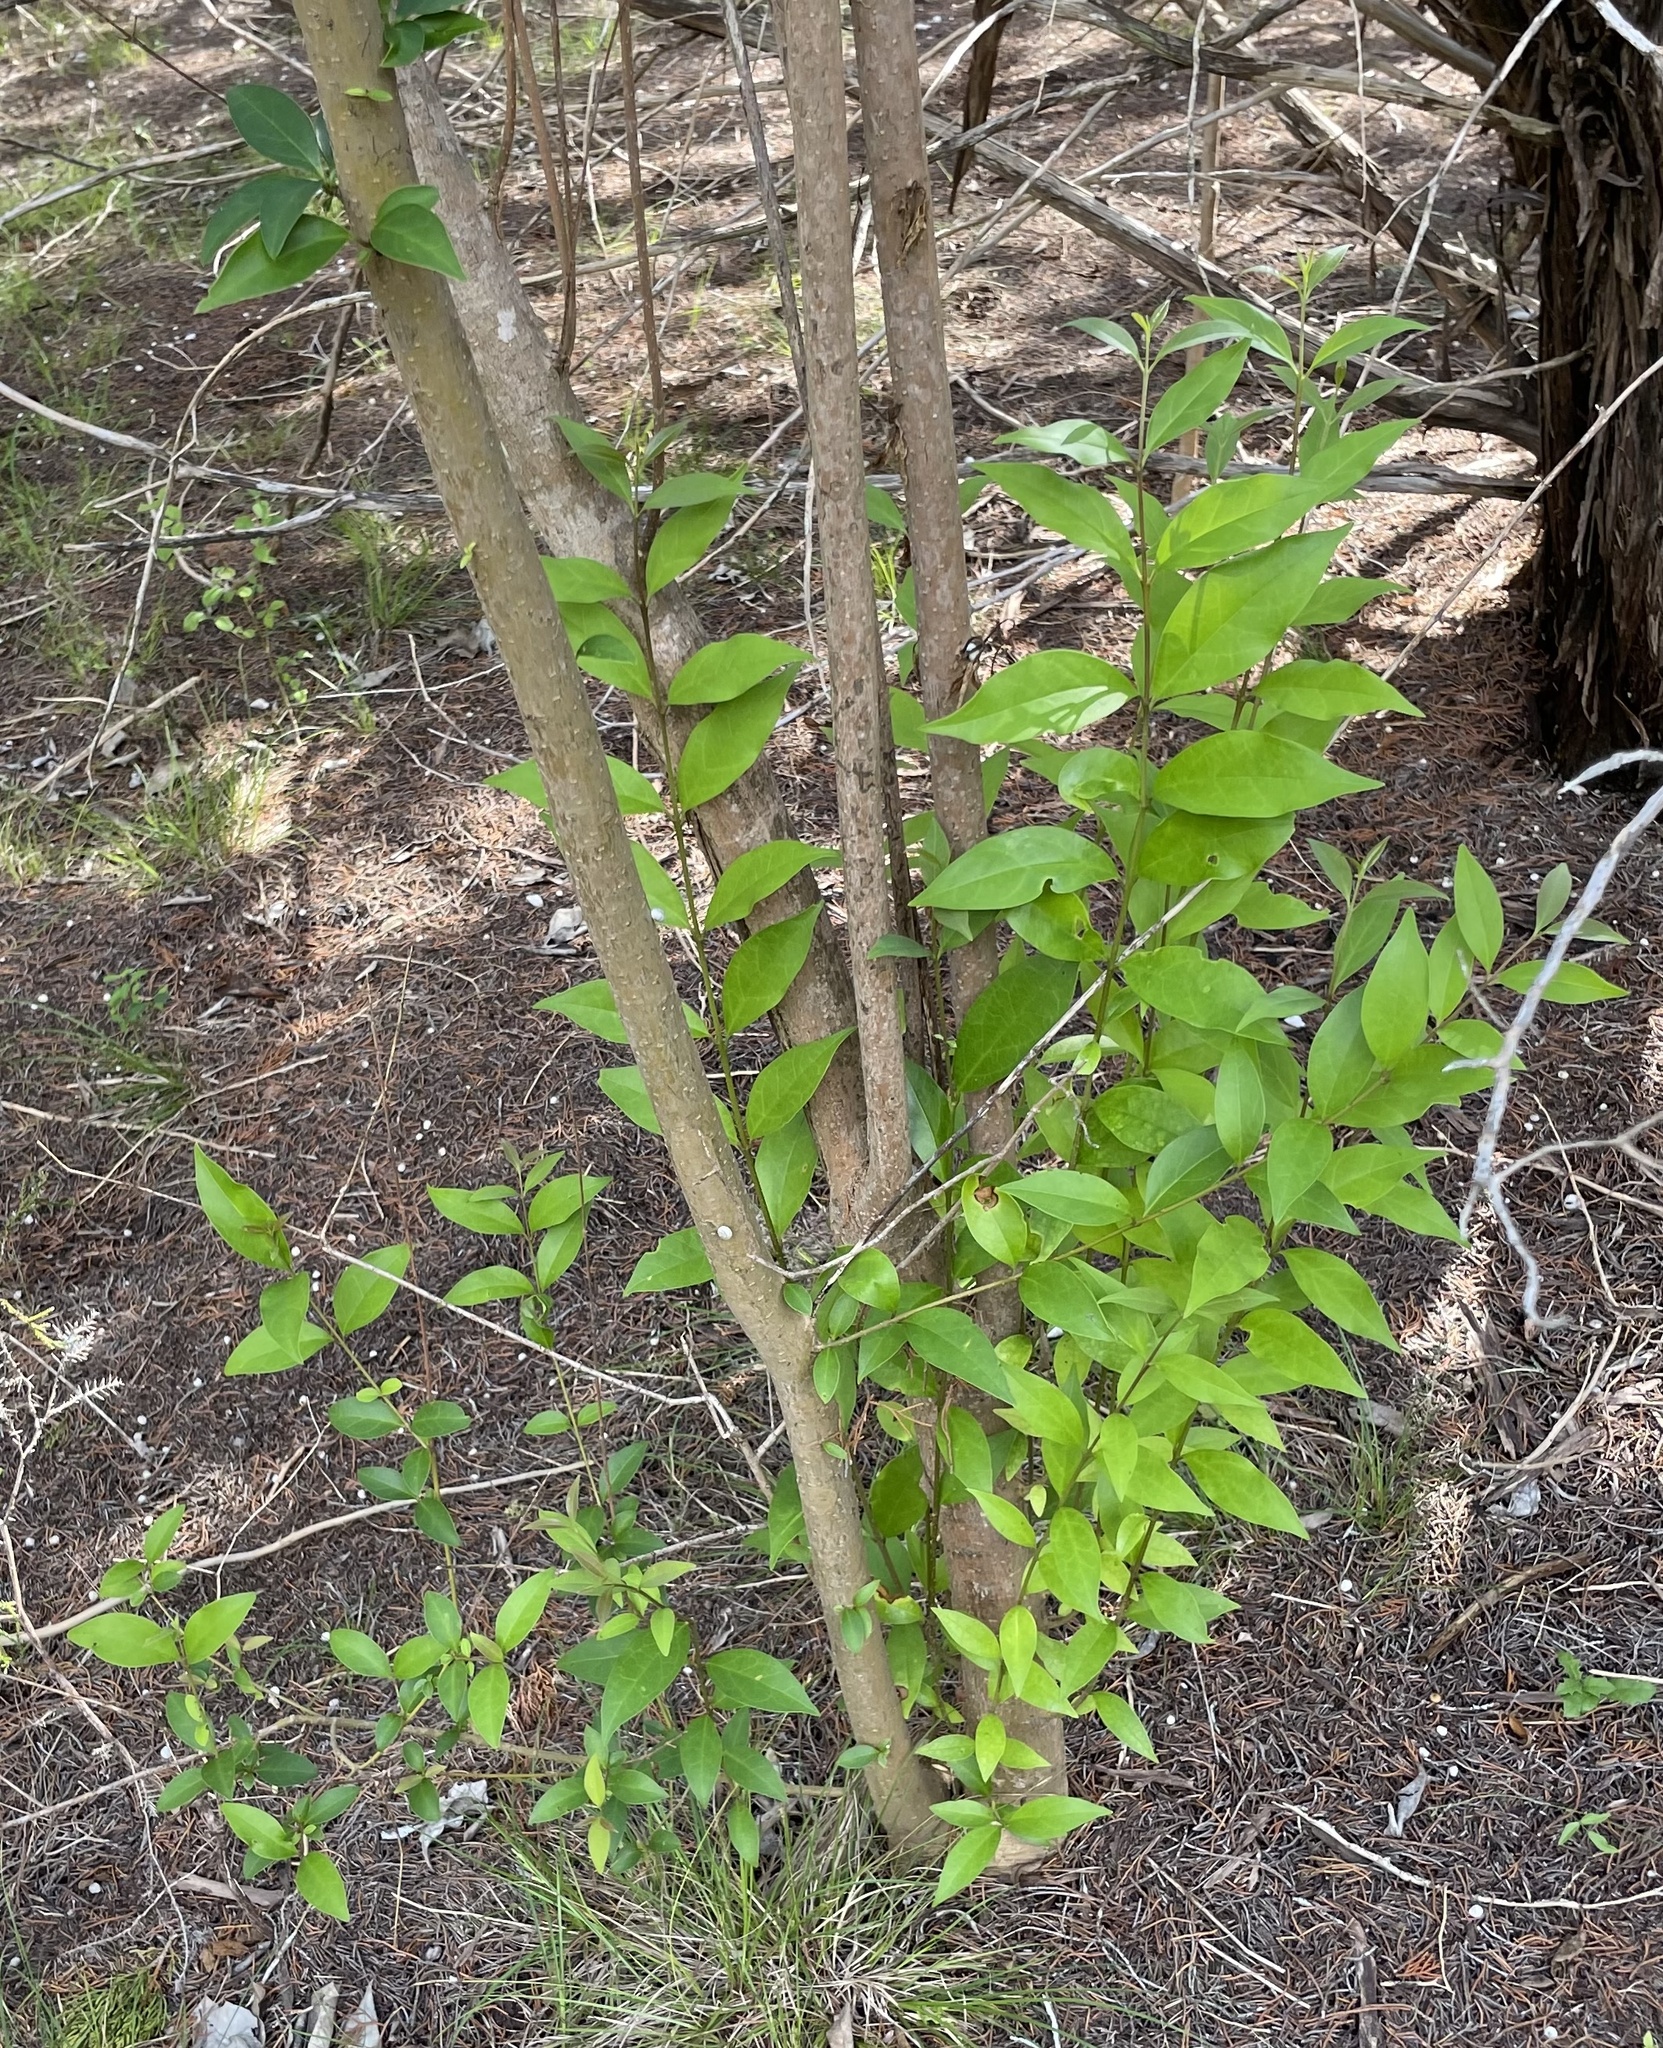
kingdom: Plantae
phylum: Tracheophyta
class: Magnoliopsida
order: Lamiales
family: Oleaceae
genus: Ligustrum
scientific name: Ligustrum lucidum
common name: Glossy privet
